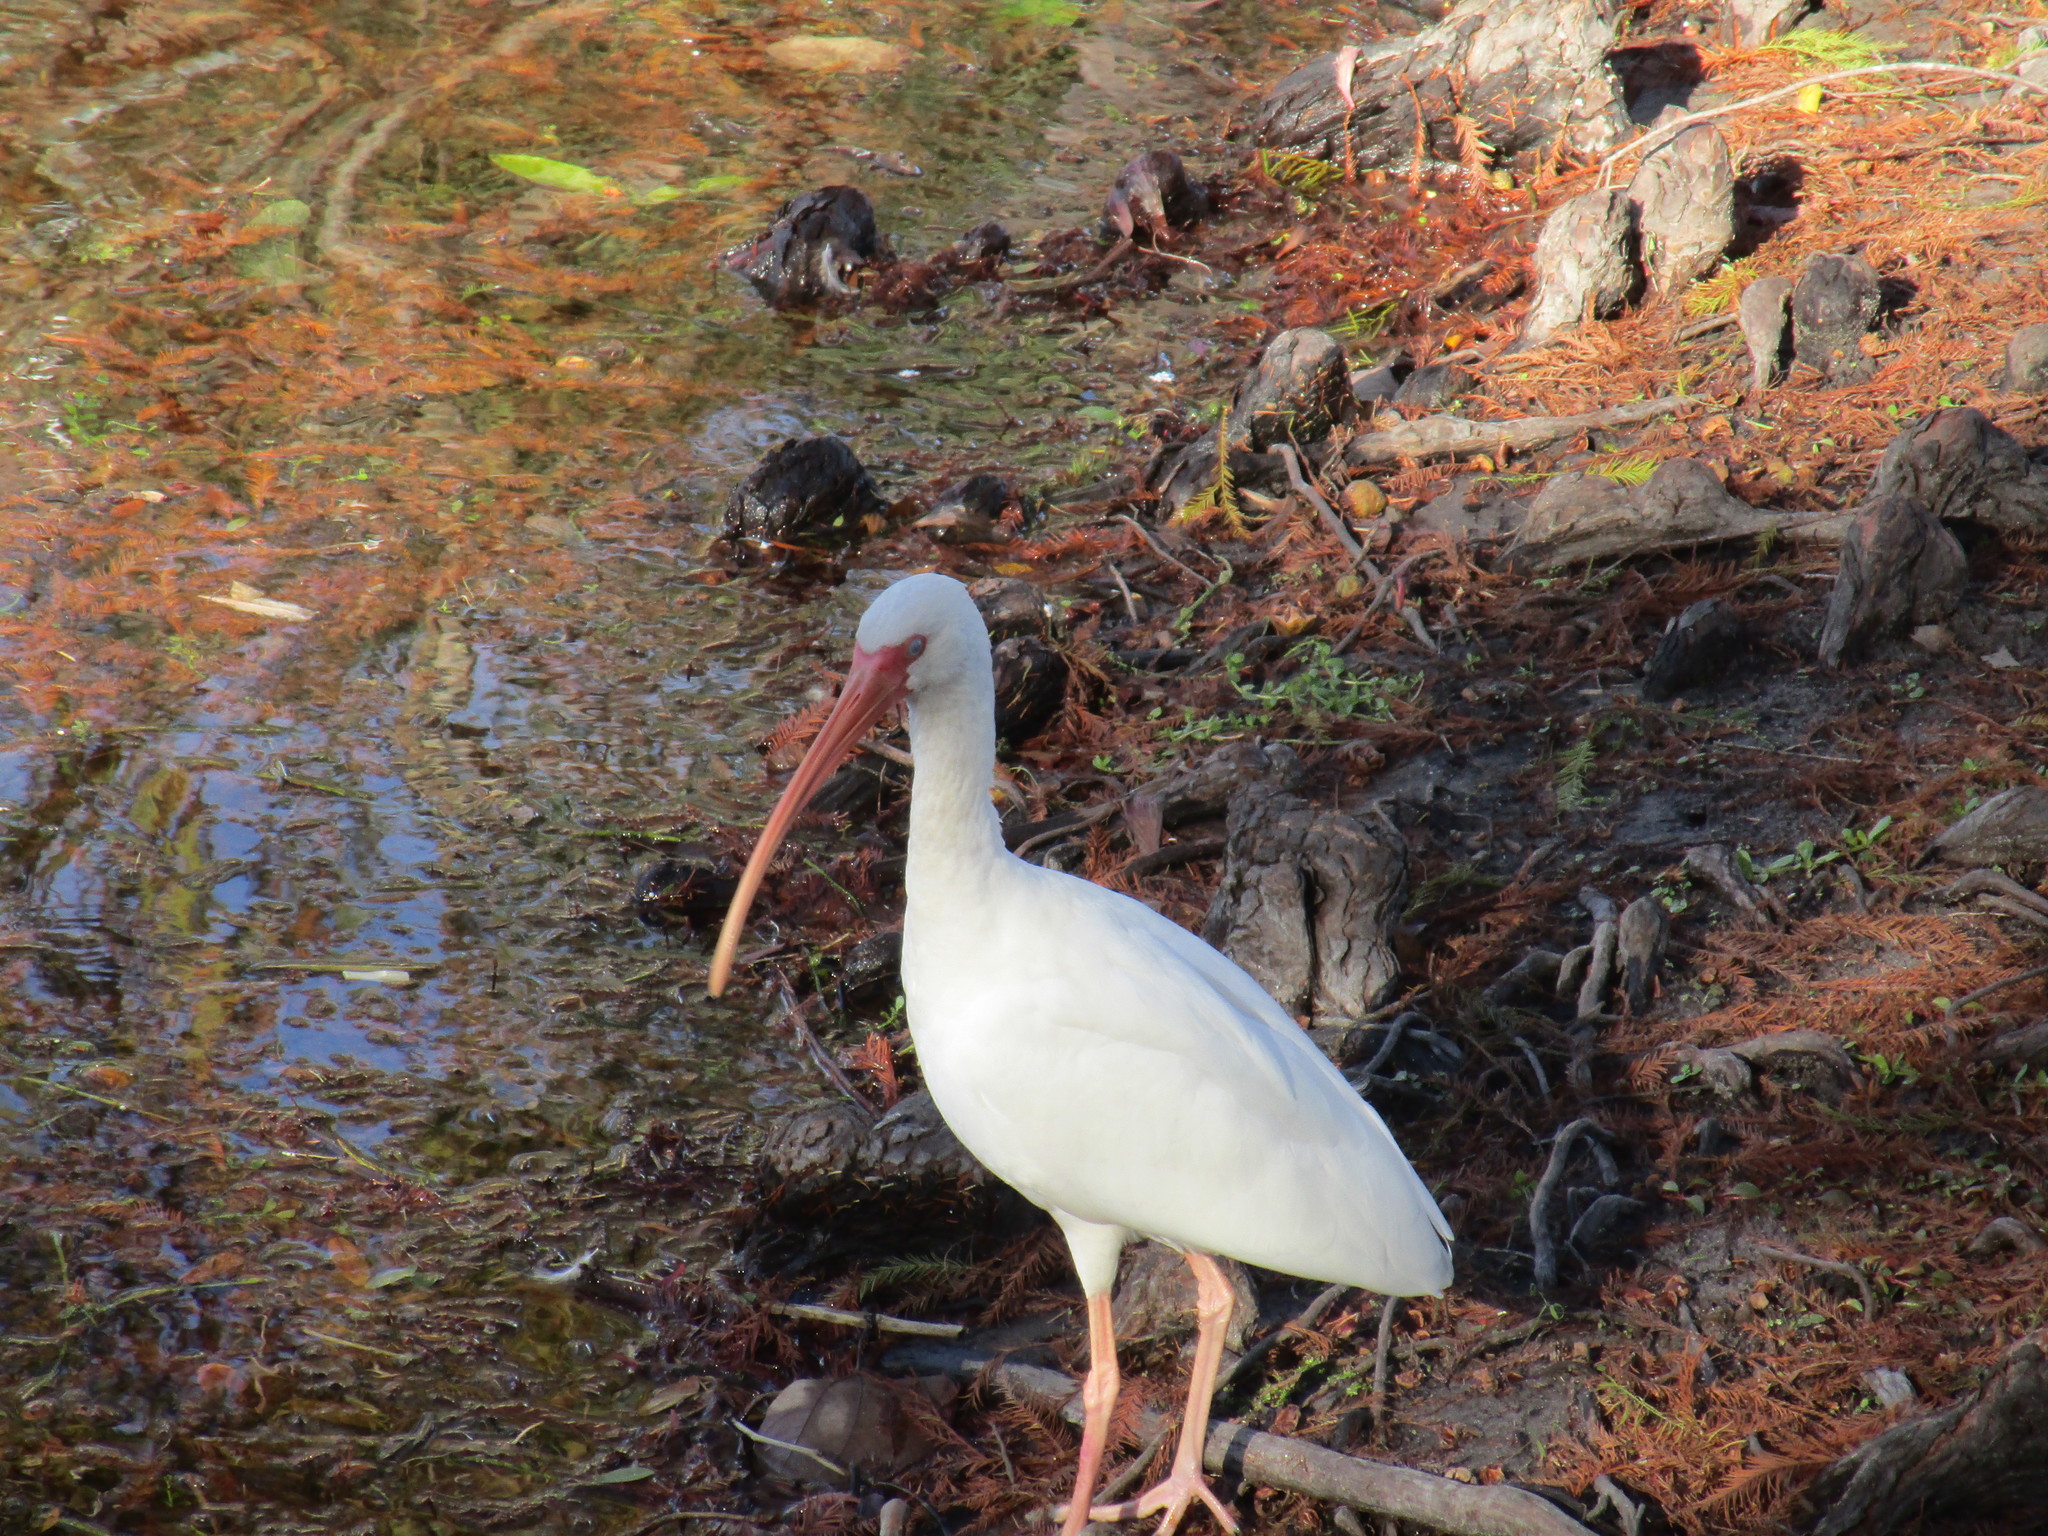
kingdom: Animalia
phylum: Chordata
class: Aves
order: Pelecaniformes
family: Threskiornithidae
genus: Eudocimus
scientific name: Eudocimus albus
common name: White ibis
